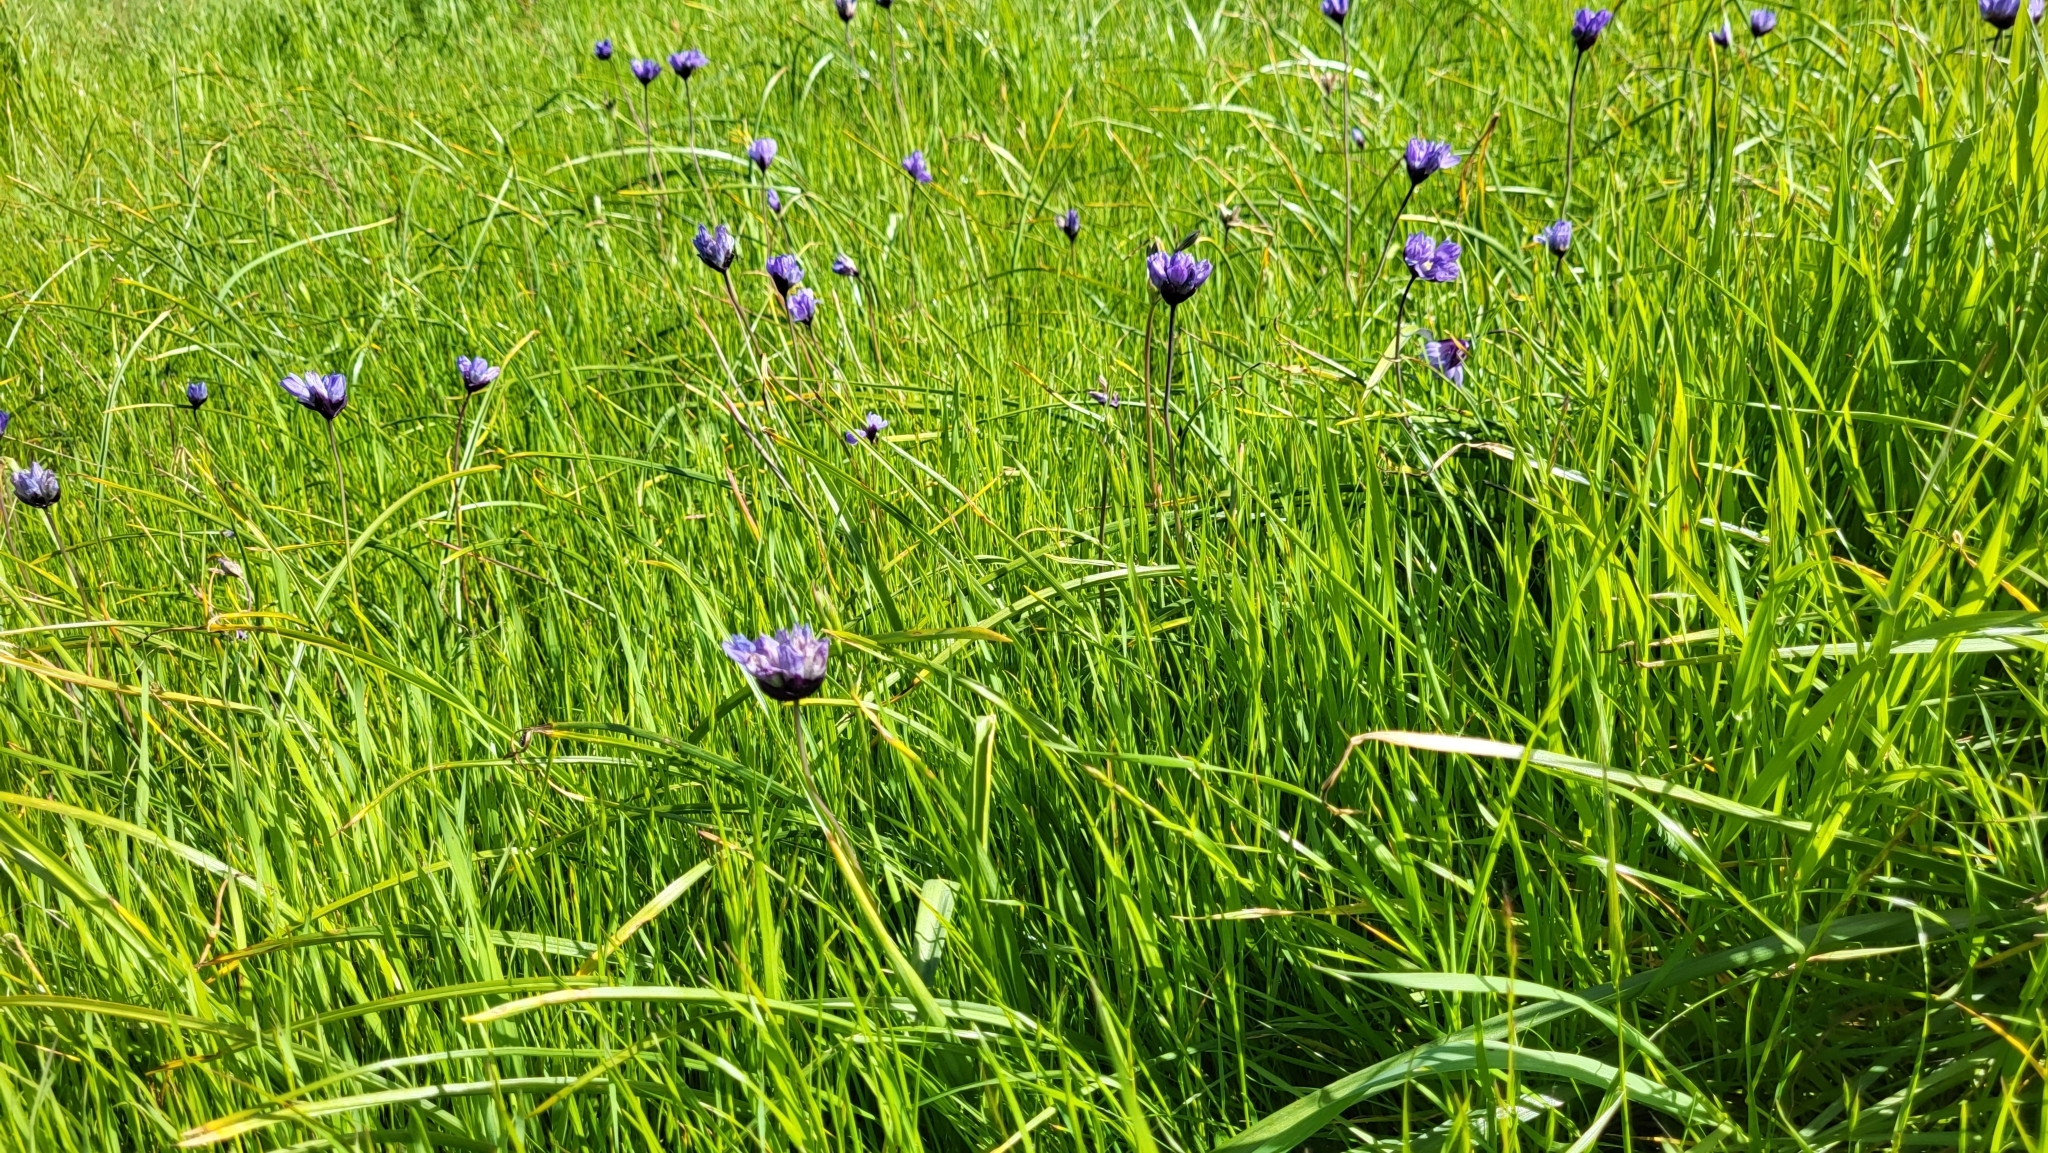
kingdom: Plantae
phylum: Tracheophyta
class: Liliopsida
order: Asparagales
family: Asparagaceae
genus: Dipterostemon
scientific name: Dipterostemon capitatus
